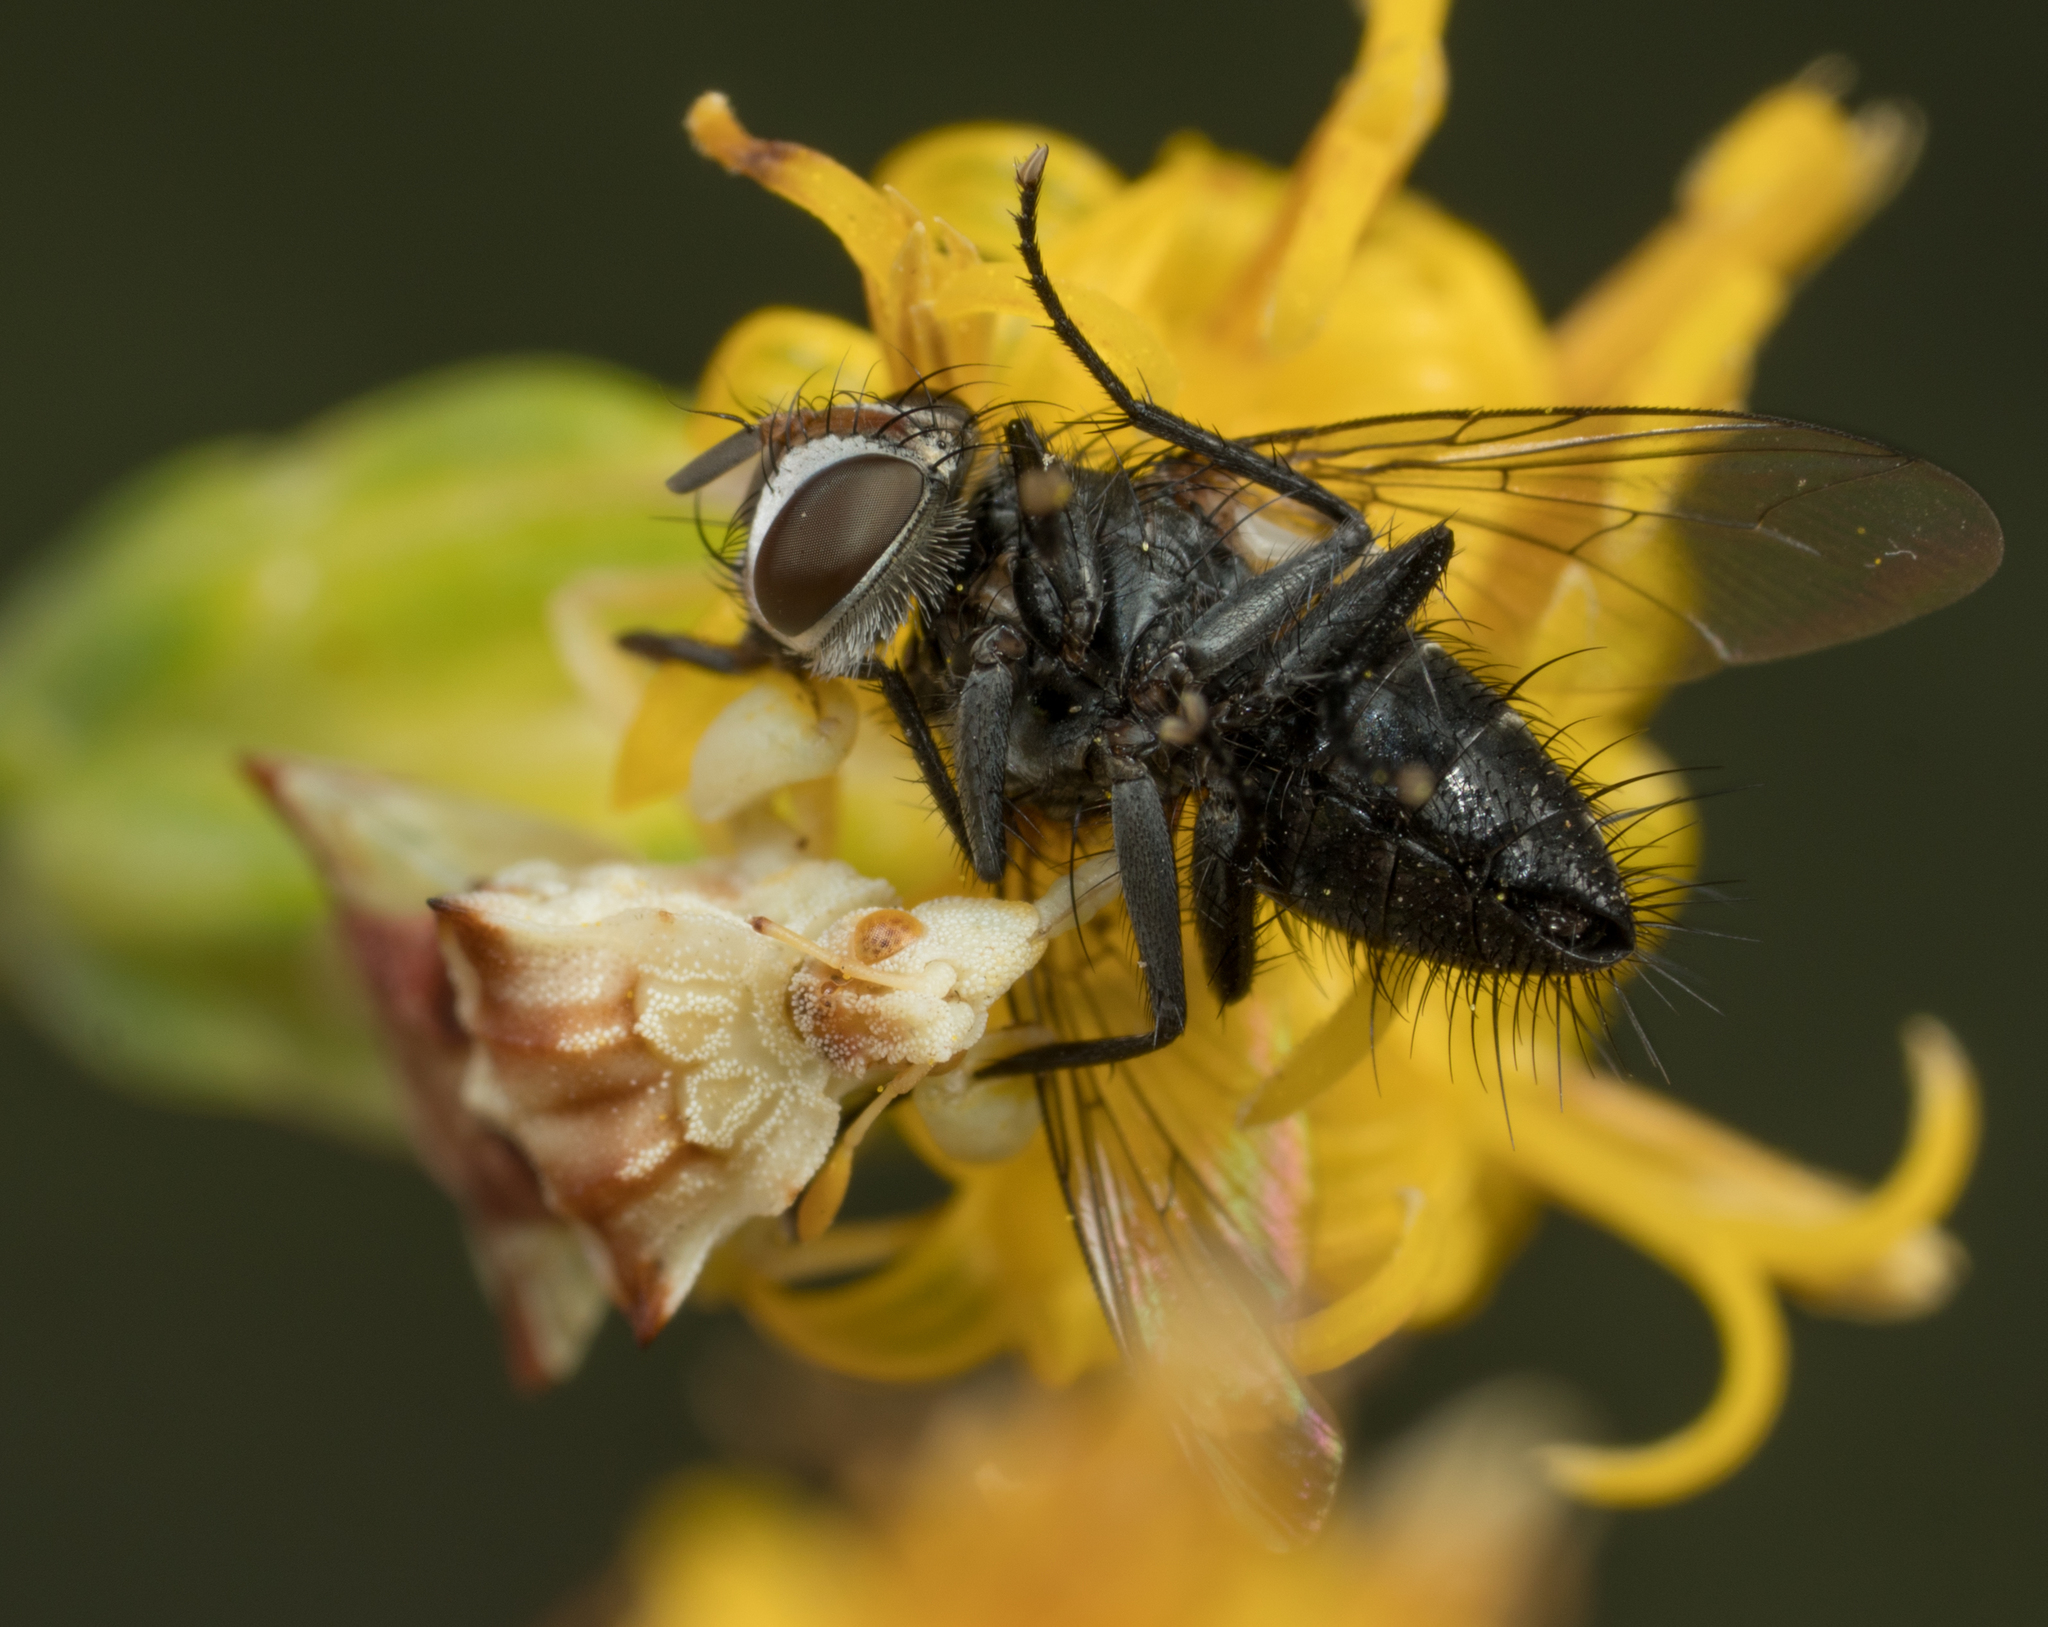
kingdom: Animalia
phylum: Arthropoda
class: Insecta
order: Hemiptera
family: Reduviidae
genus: Phymata
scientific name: Phymata pacifica
